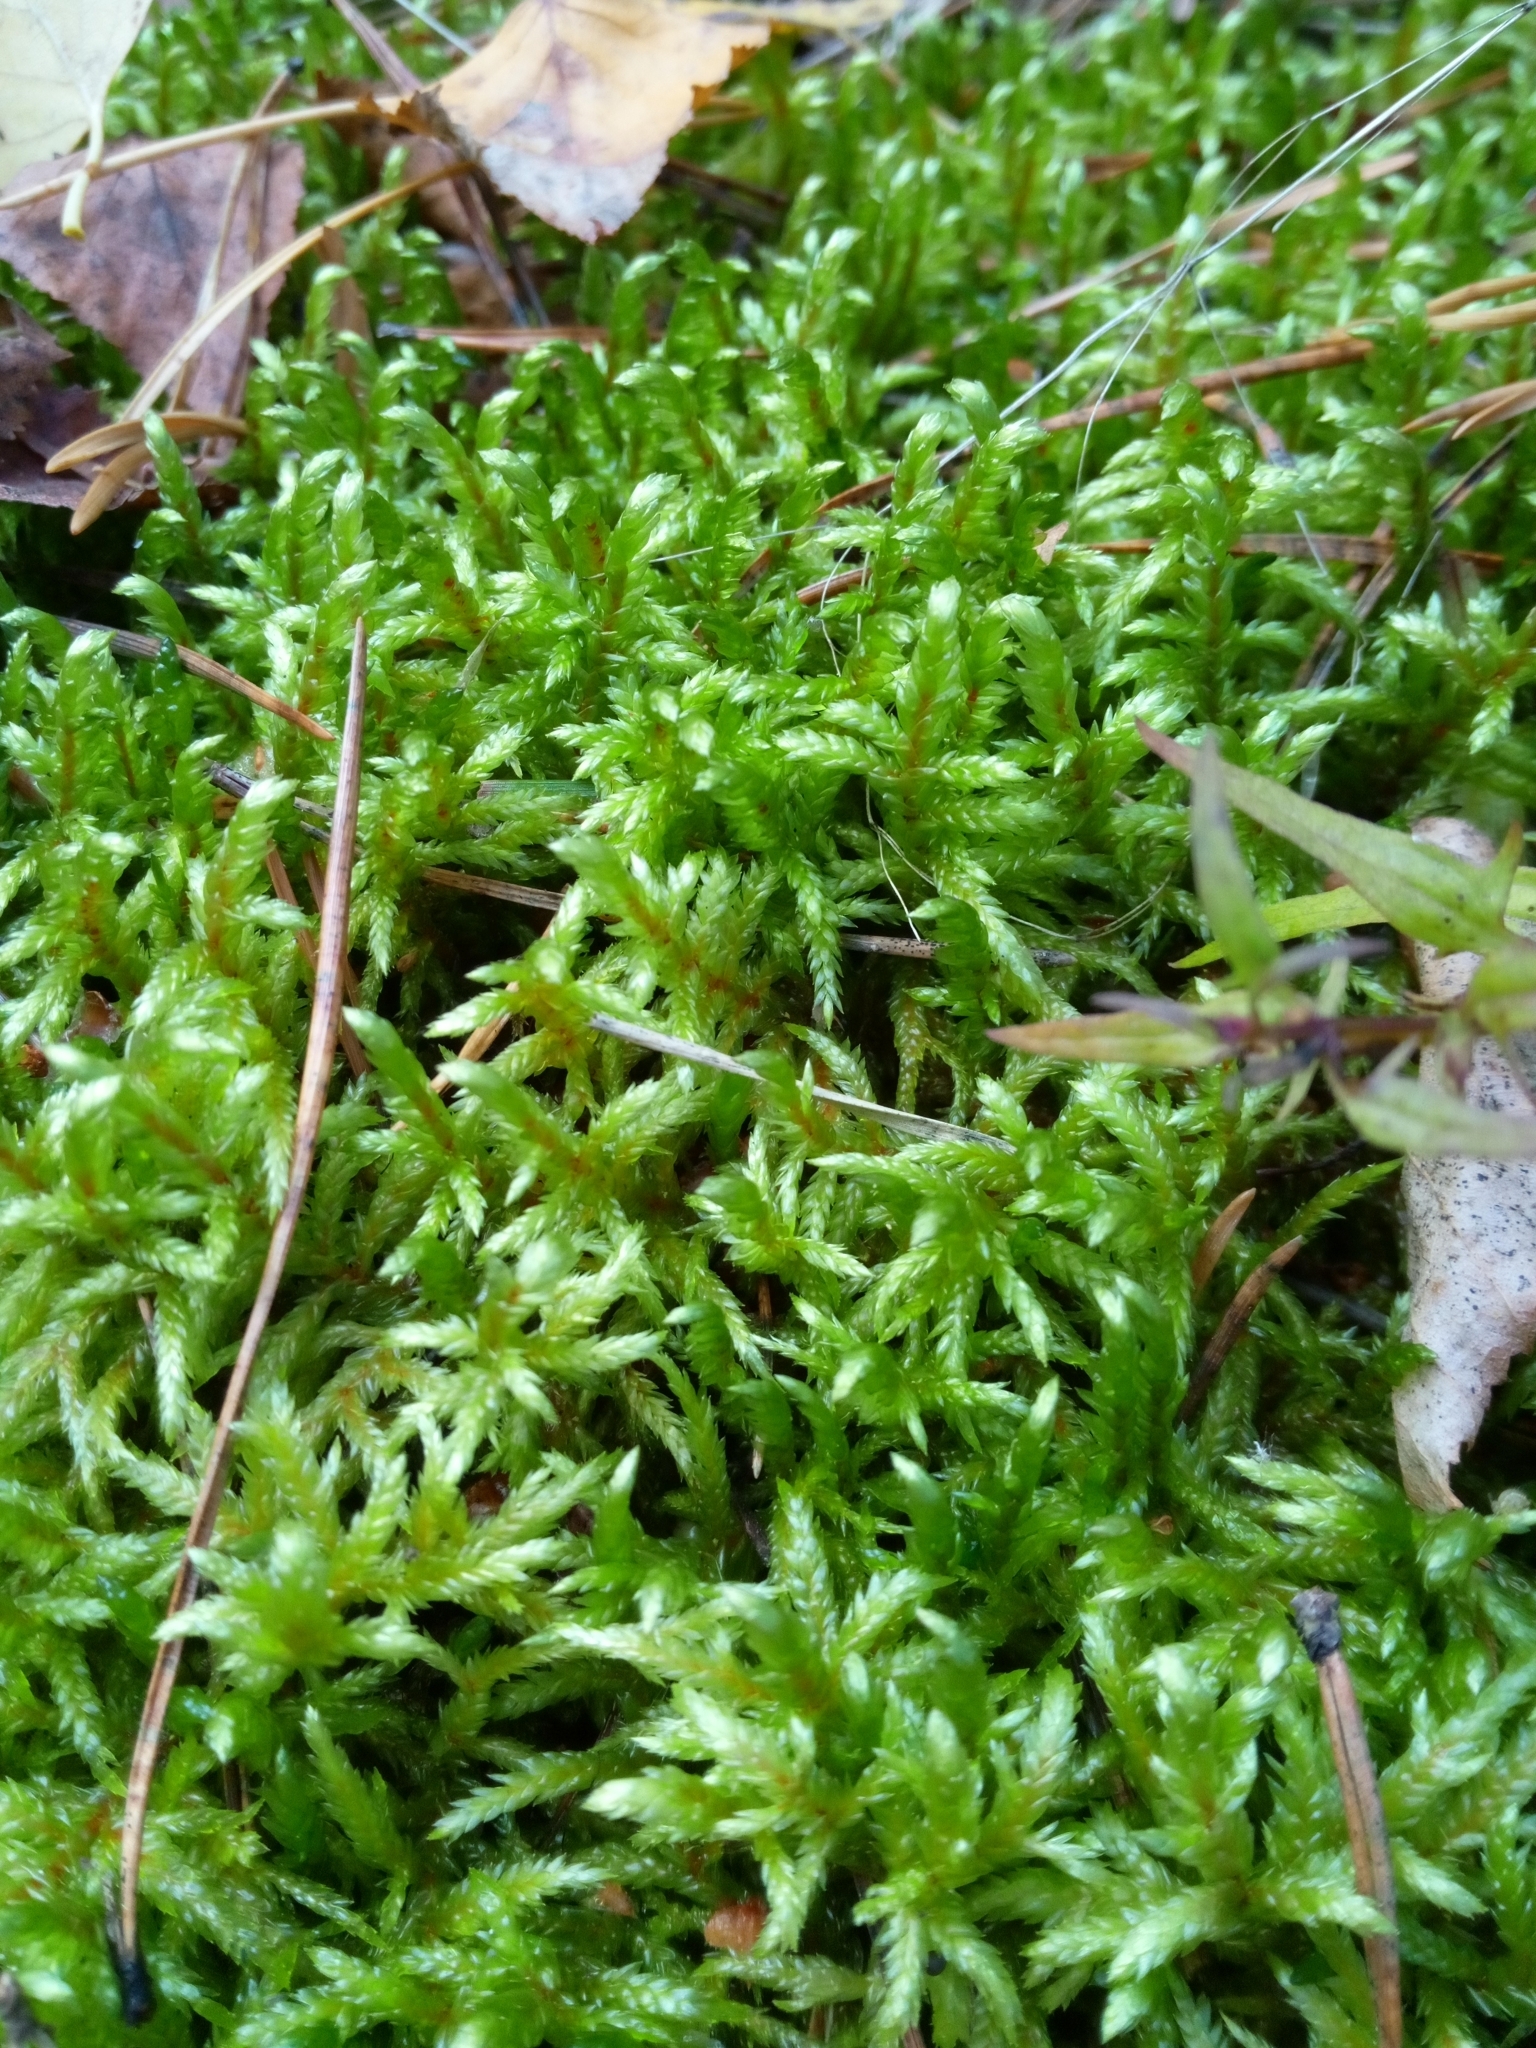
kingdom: Plantae
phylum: Bryophyta
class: Bryopsida
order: Hypnales
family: Hylocomiaceae
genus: Pleurozium
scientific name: Pleurozium schreberi
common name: Red-stemmed feather moss
